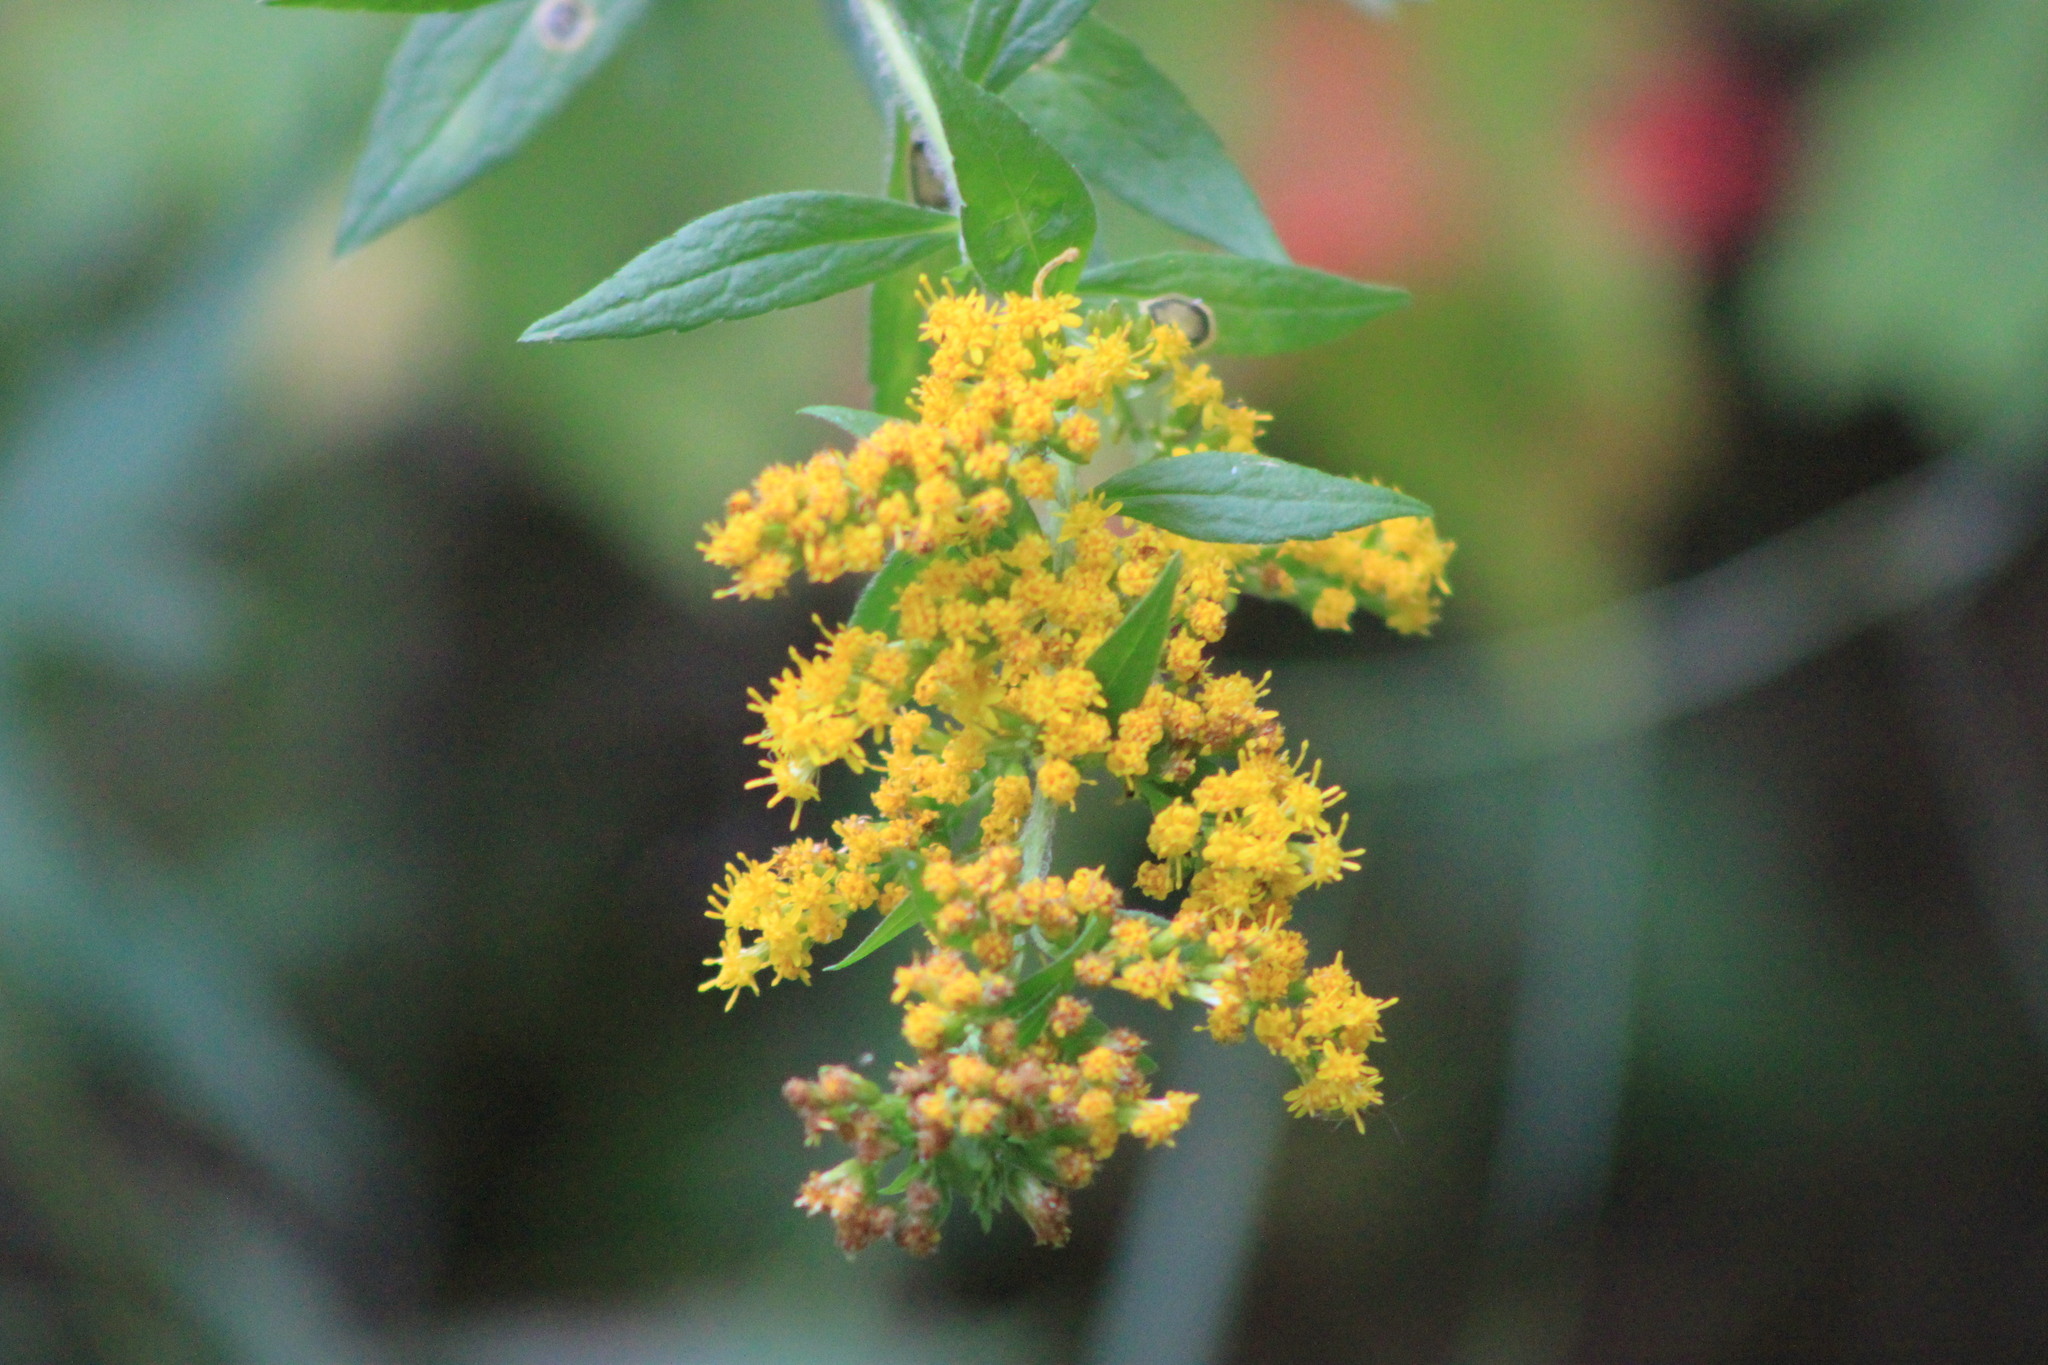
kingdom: Plantae
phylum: Tracheophyta
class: Magnoliopsida
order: Asterales
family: Asteraceae
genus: Solidago
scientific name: Solidago rugosa
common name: Rough-stemmed goldenrod
